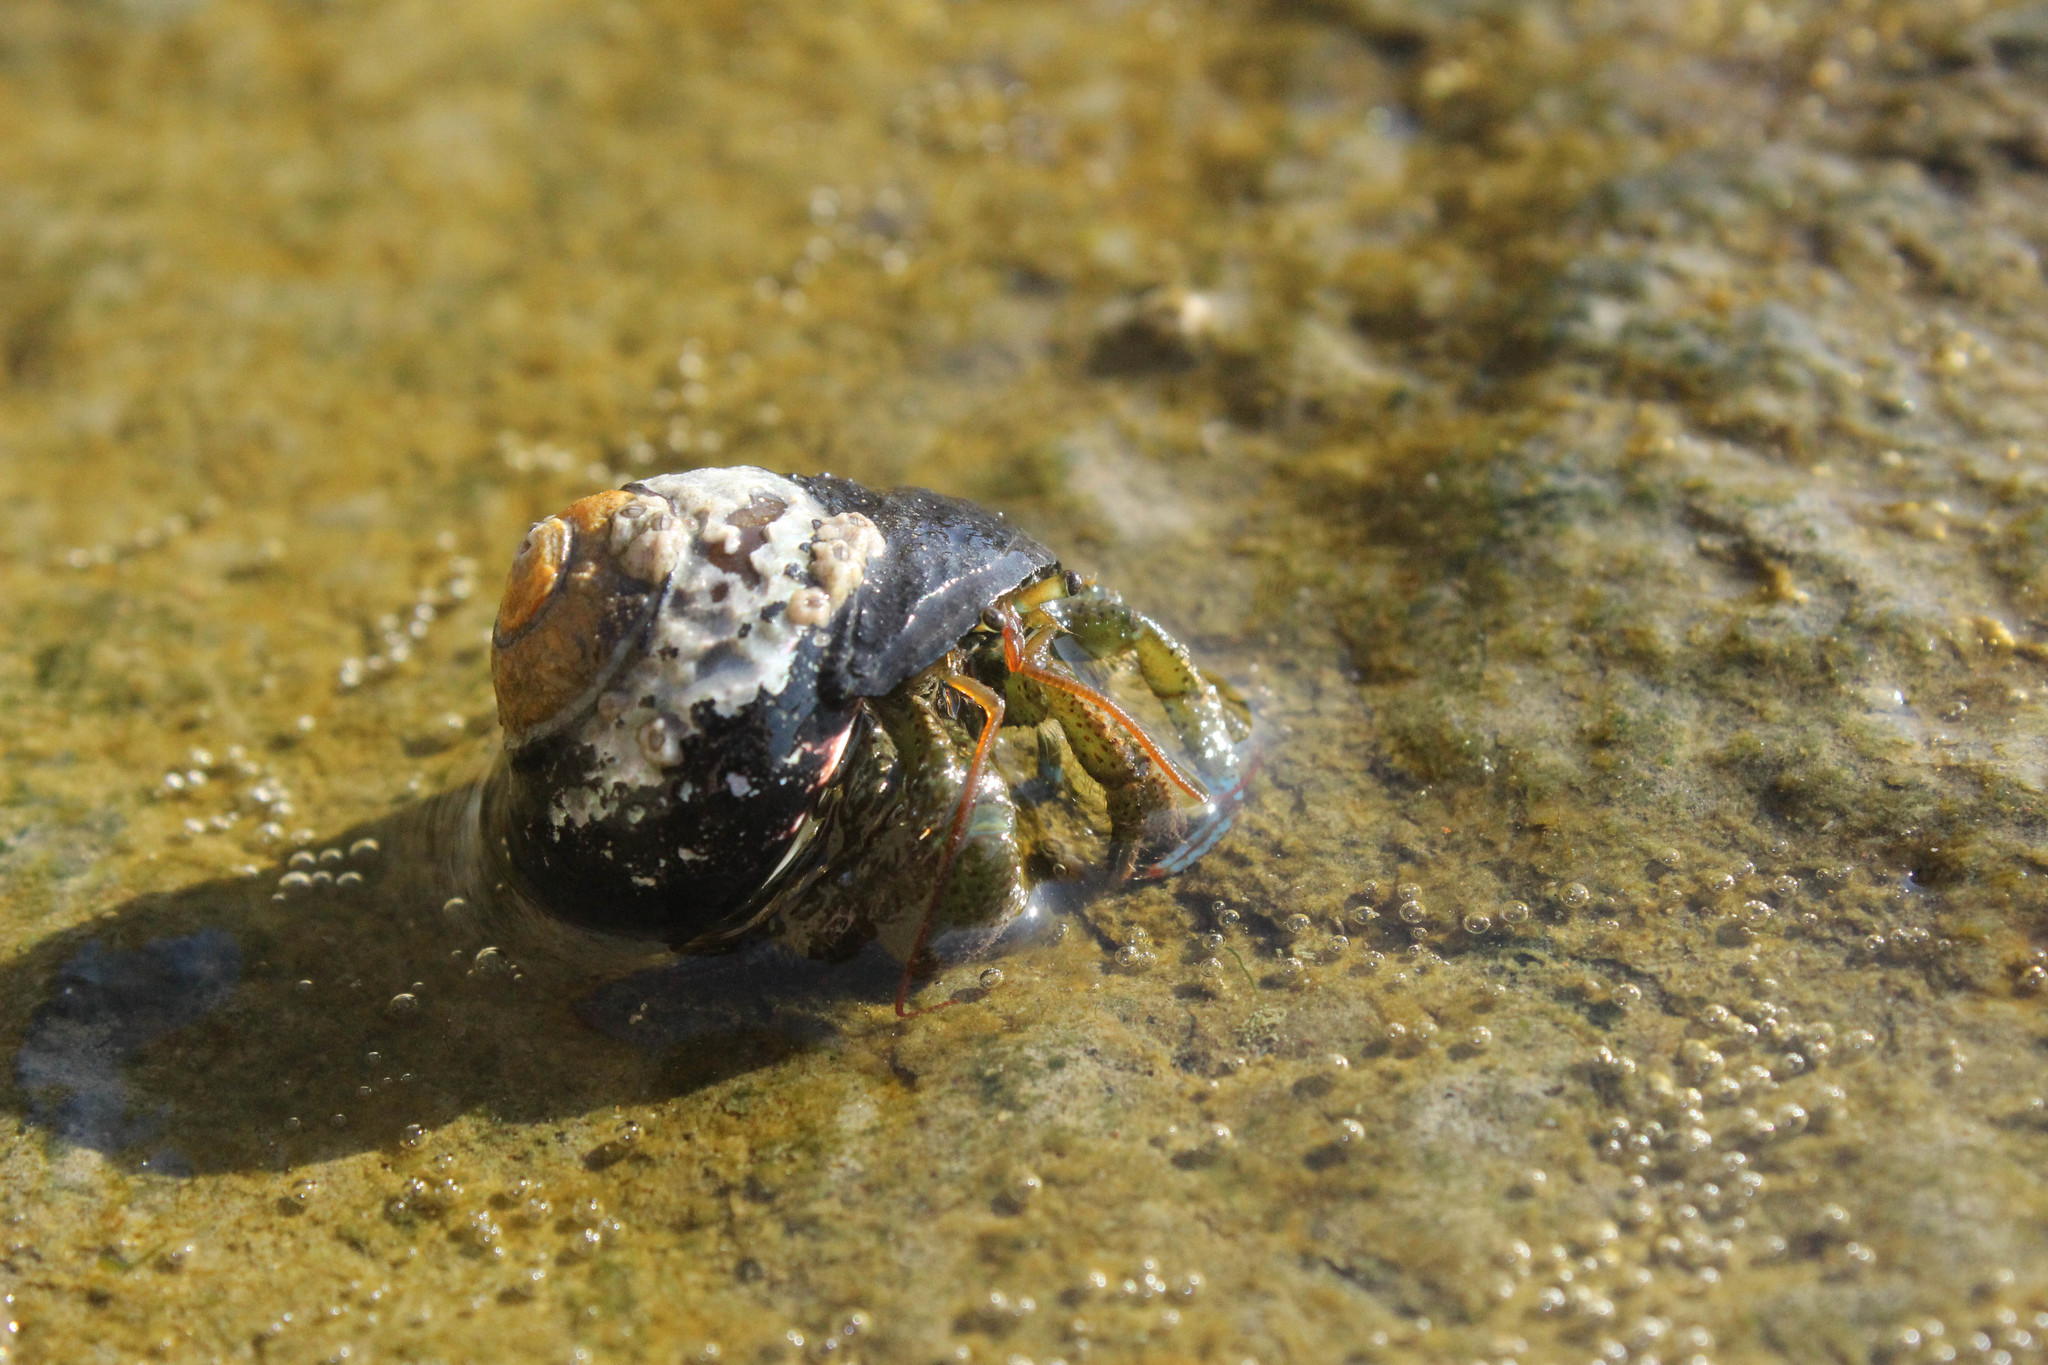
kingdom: Animalia
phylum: Arthropoda
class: Malacostraca
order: Decapoda
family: Paguridae
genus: Pagurus
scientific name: Pagurus samuelis
